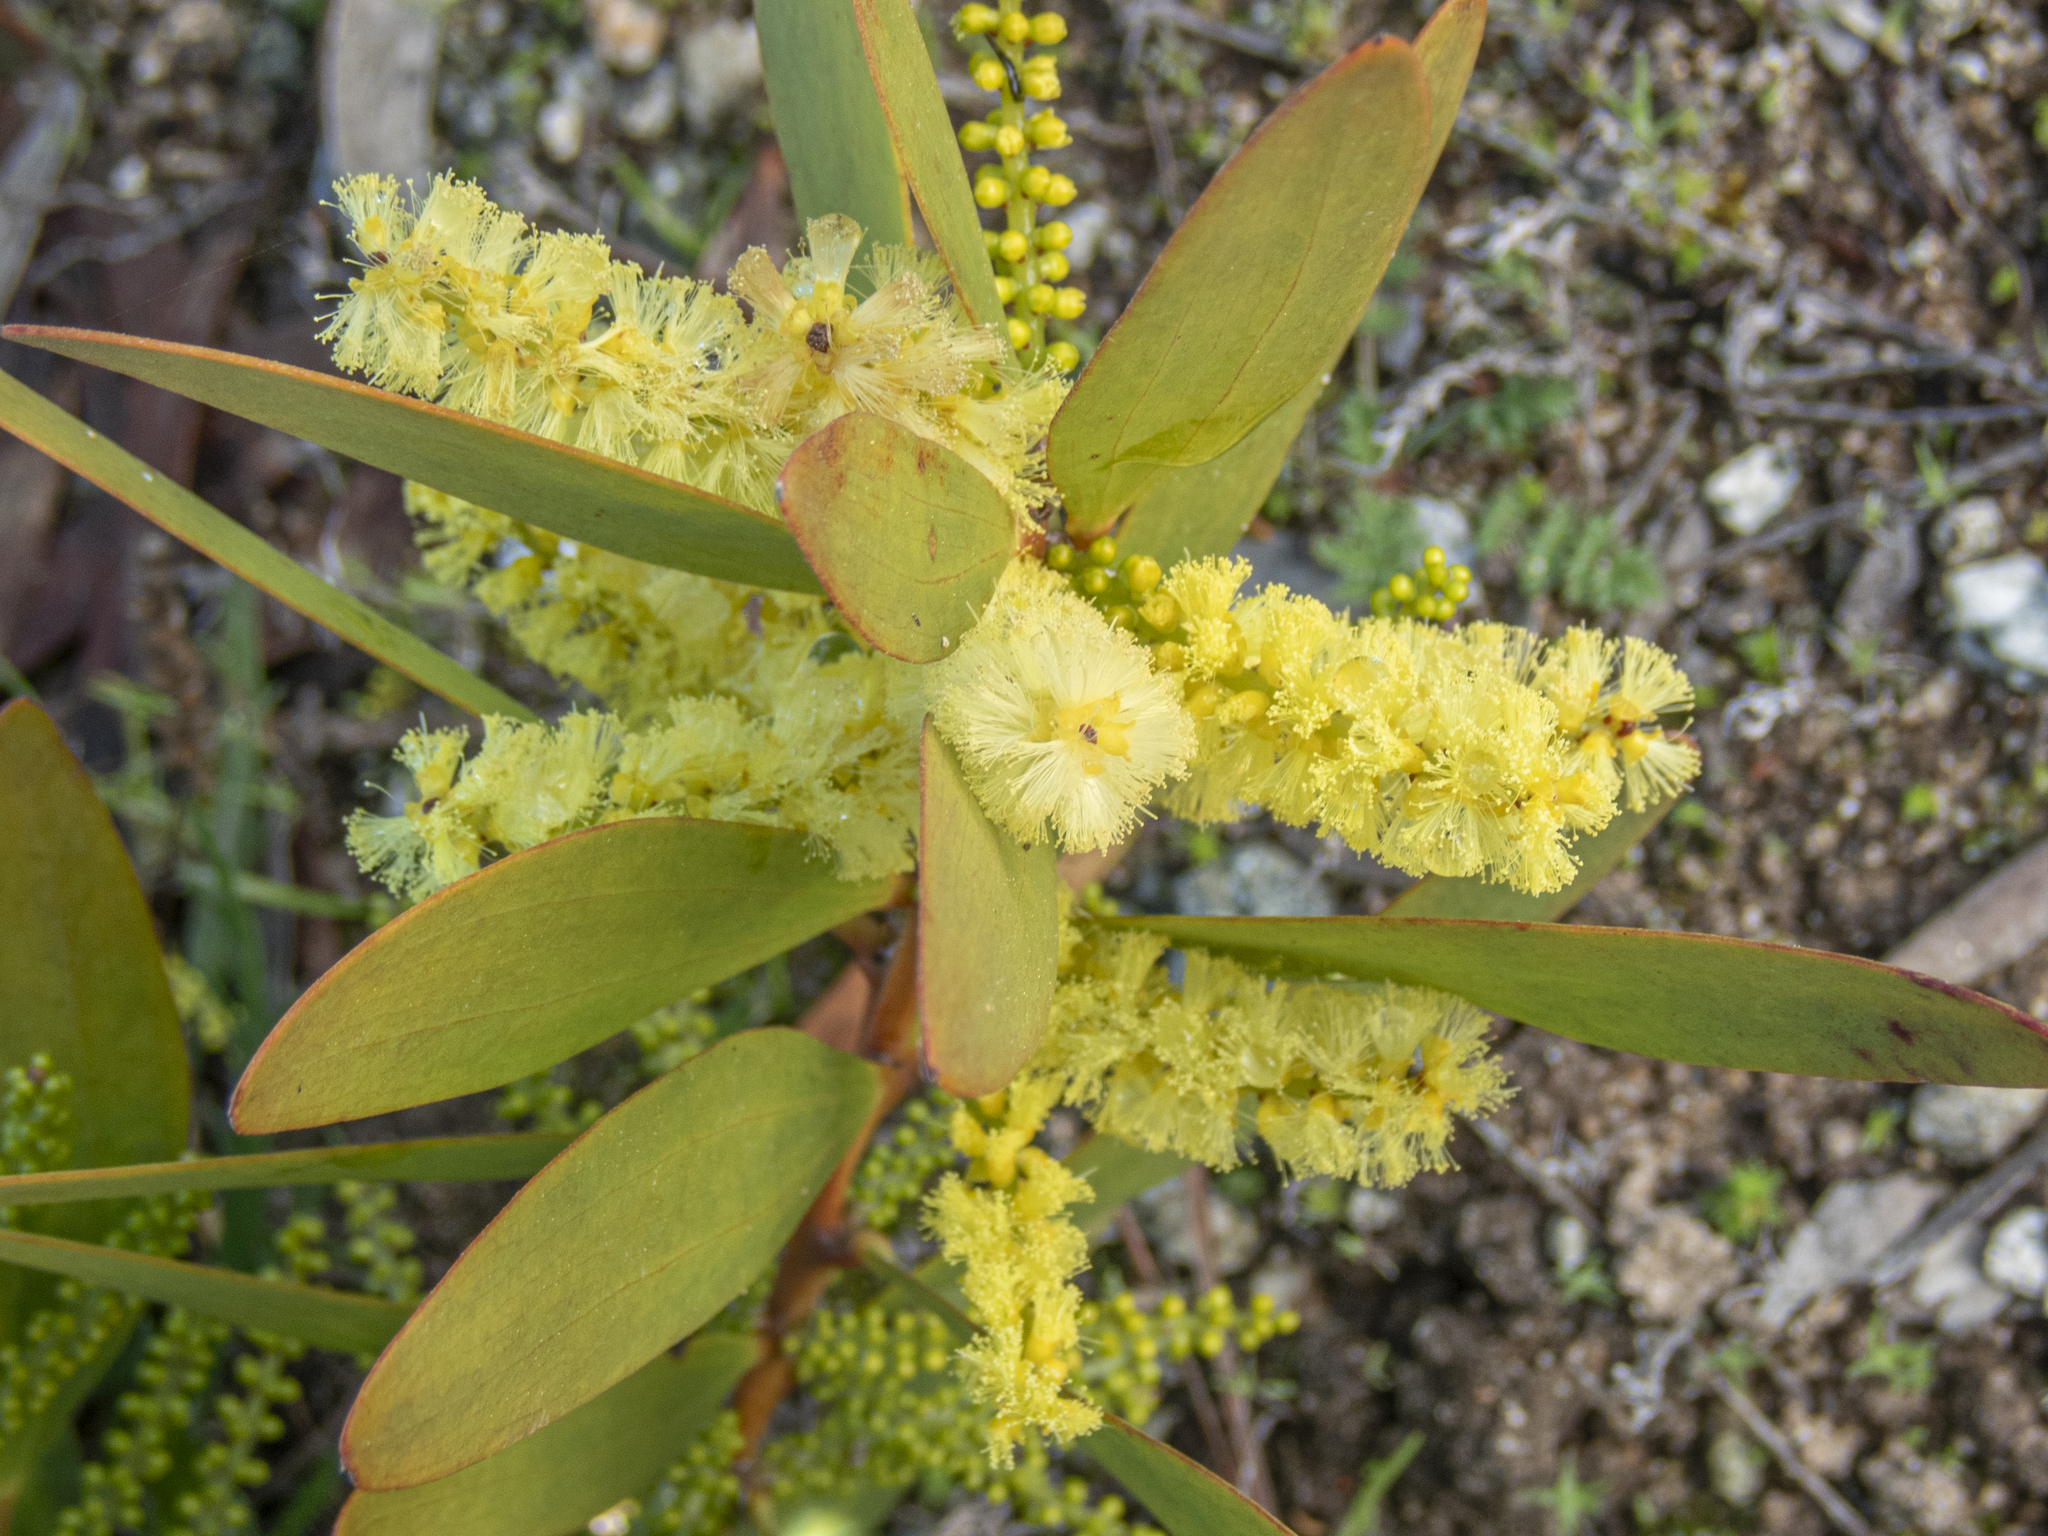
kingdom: Plantae
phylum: Tracheophyta
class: Magnoliopsida
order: Fabales
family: Fabaceae
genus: Acacia
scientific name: Acacia longifolia
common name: Sydney golden wattle
